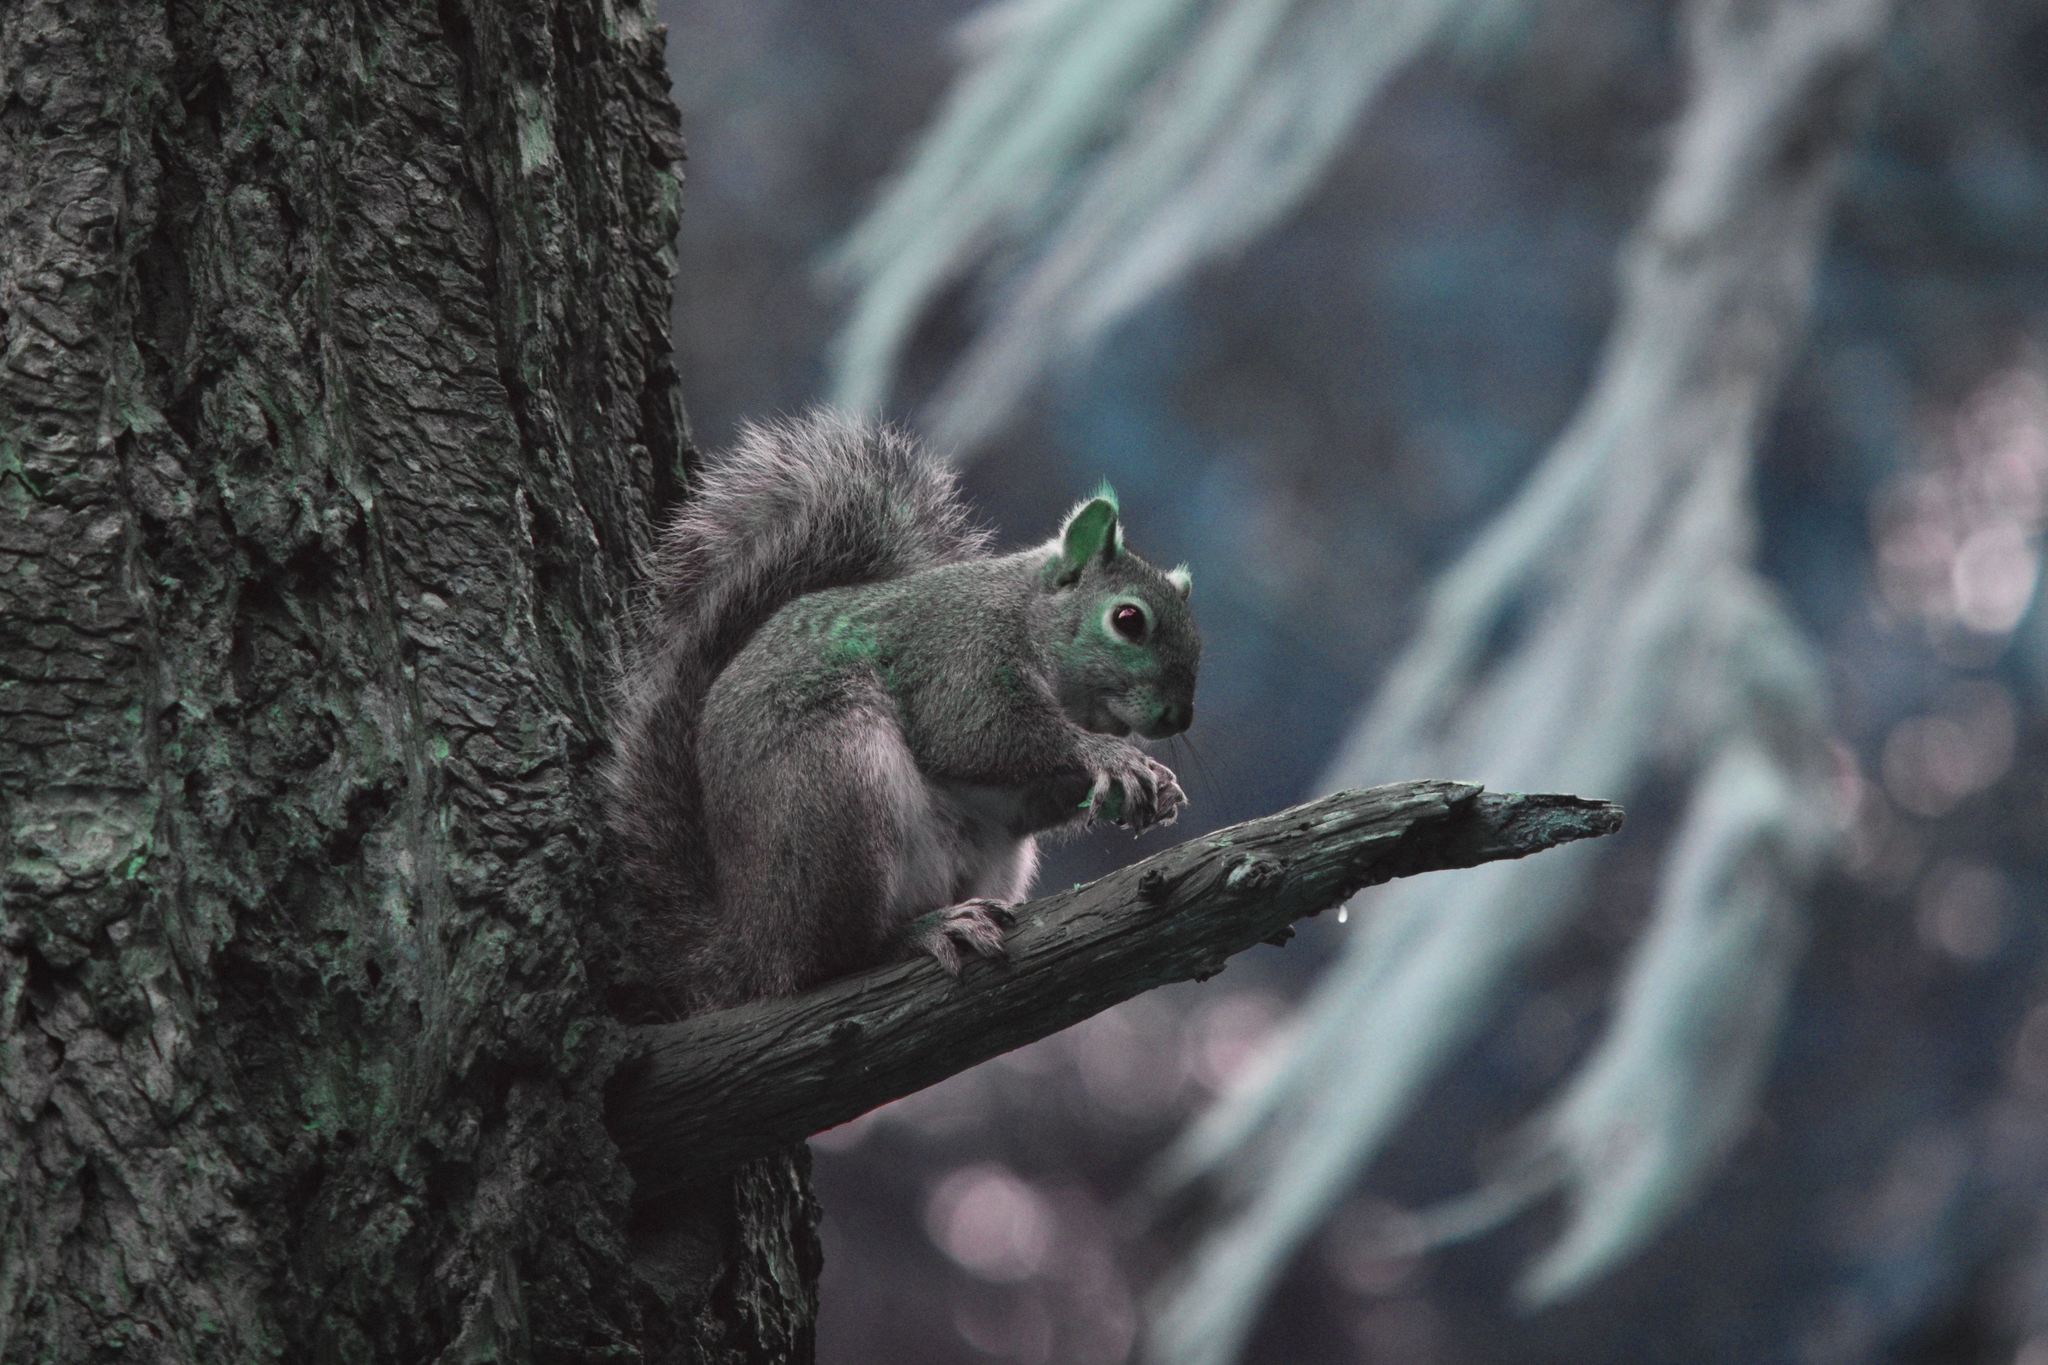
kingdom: Animalia
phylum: Chordata
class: Mammalia
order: Rodentia
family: Sciuridae
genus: Sciurus
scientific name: Sciurus carolinensis
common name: Eastern gray squirrel
